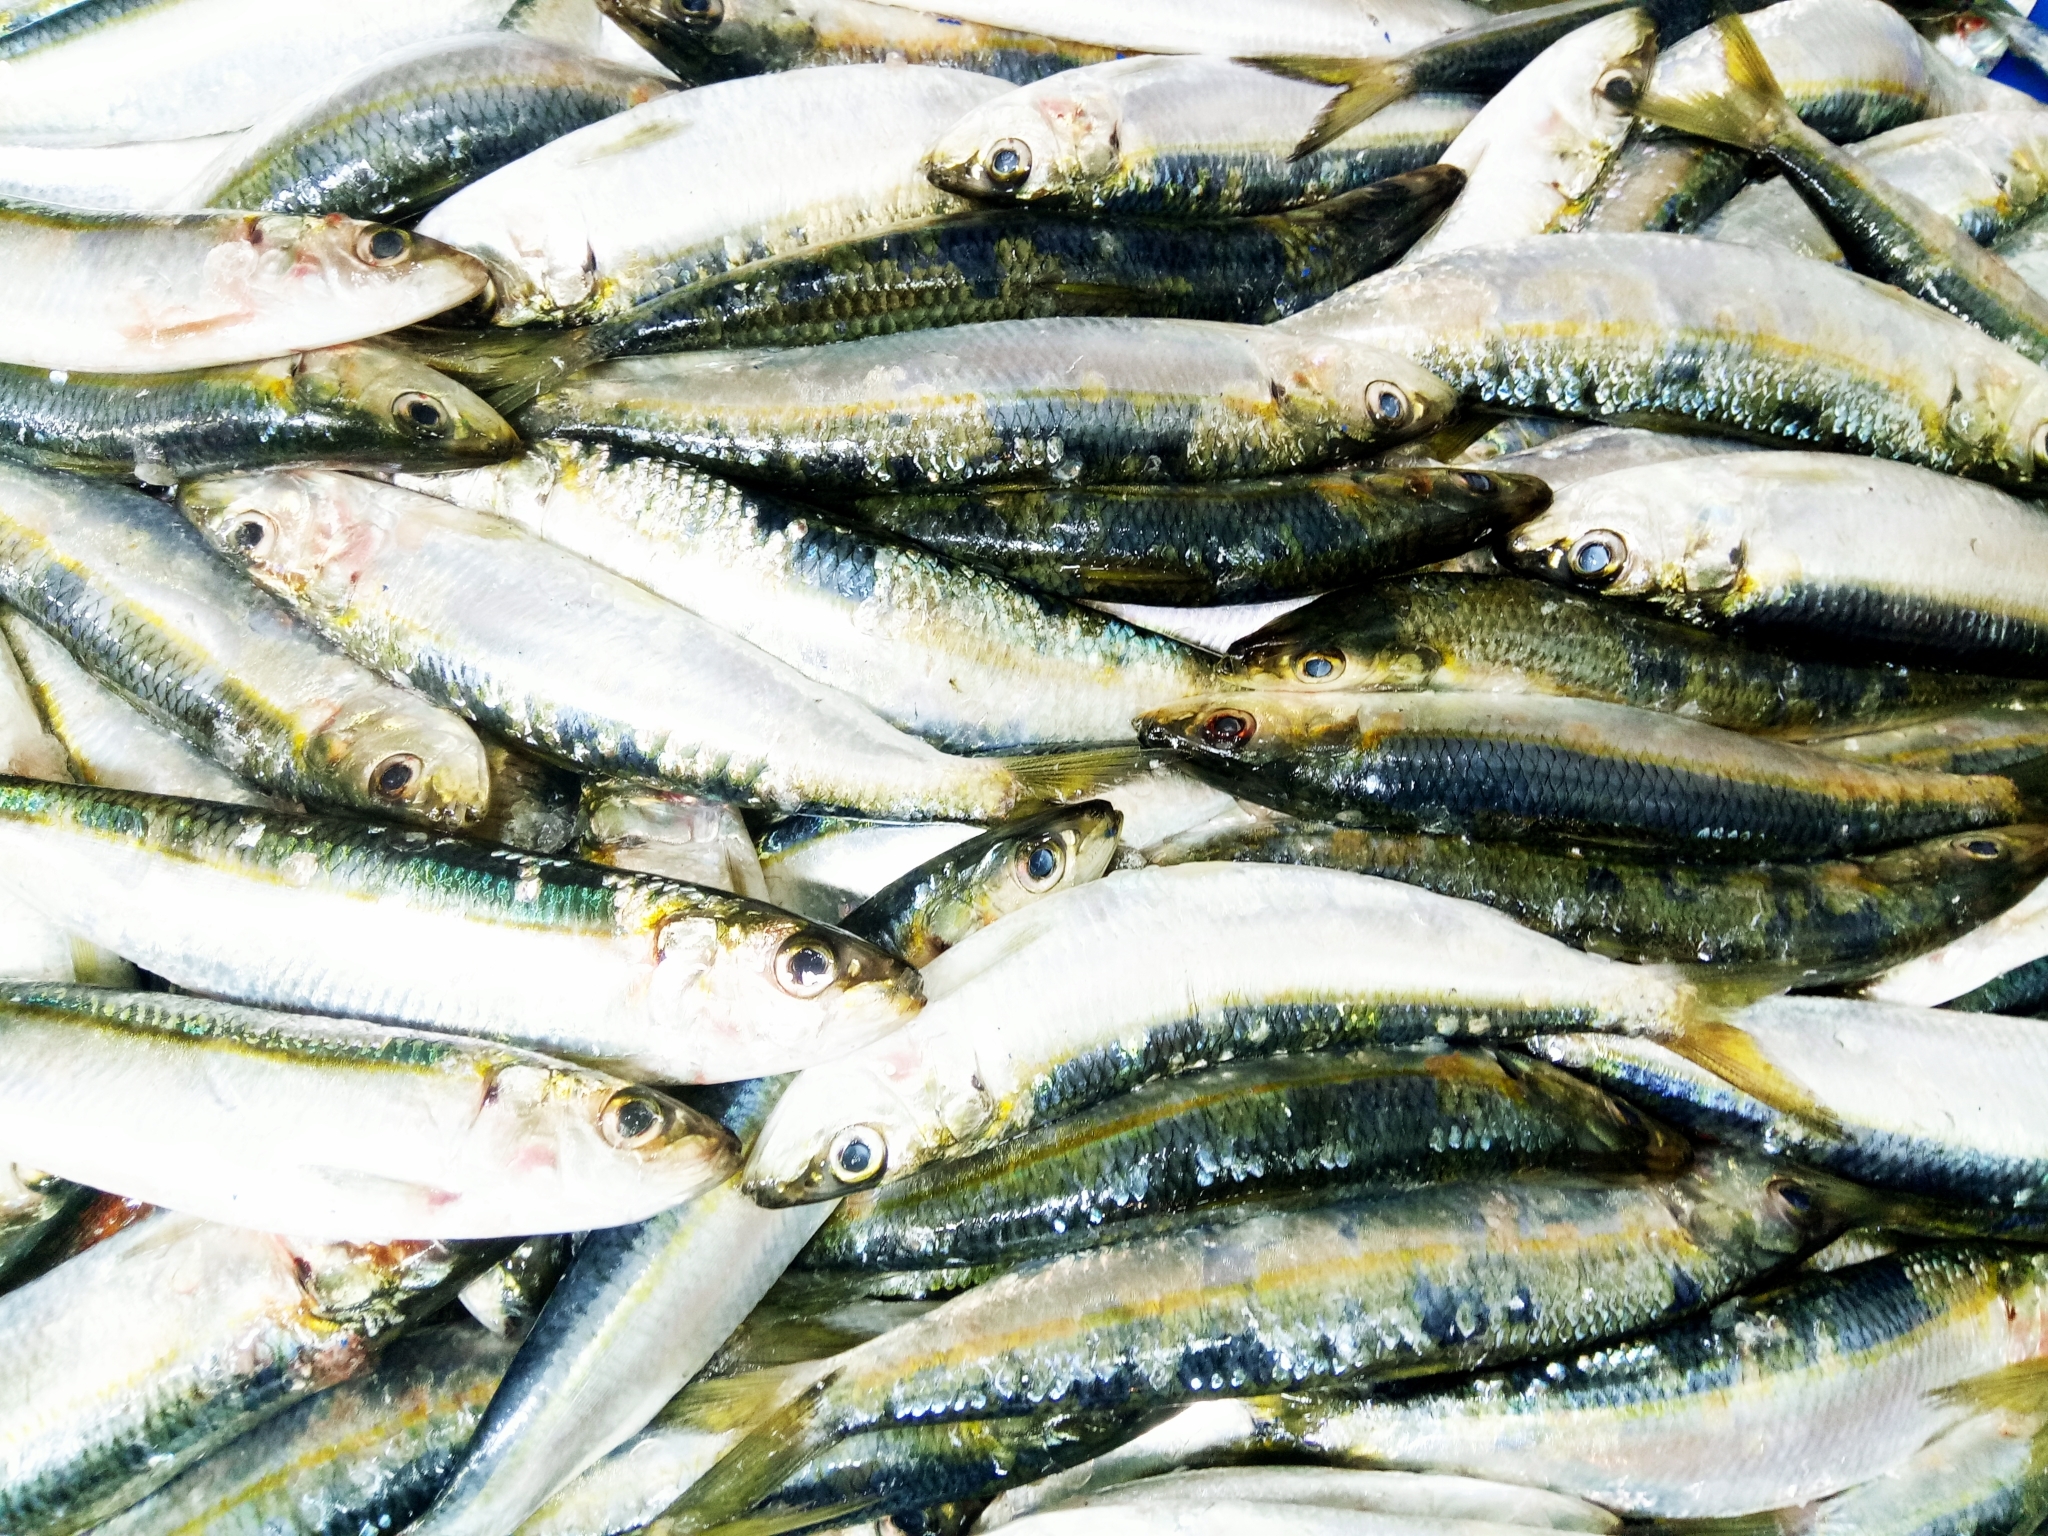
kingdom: Animalia
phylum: Chordata
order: Clupeiformes
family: Clupeidae
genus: Sardinella
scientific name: Sardinella aurita
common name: Round sardinella
